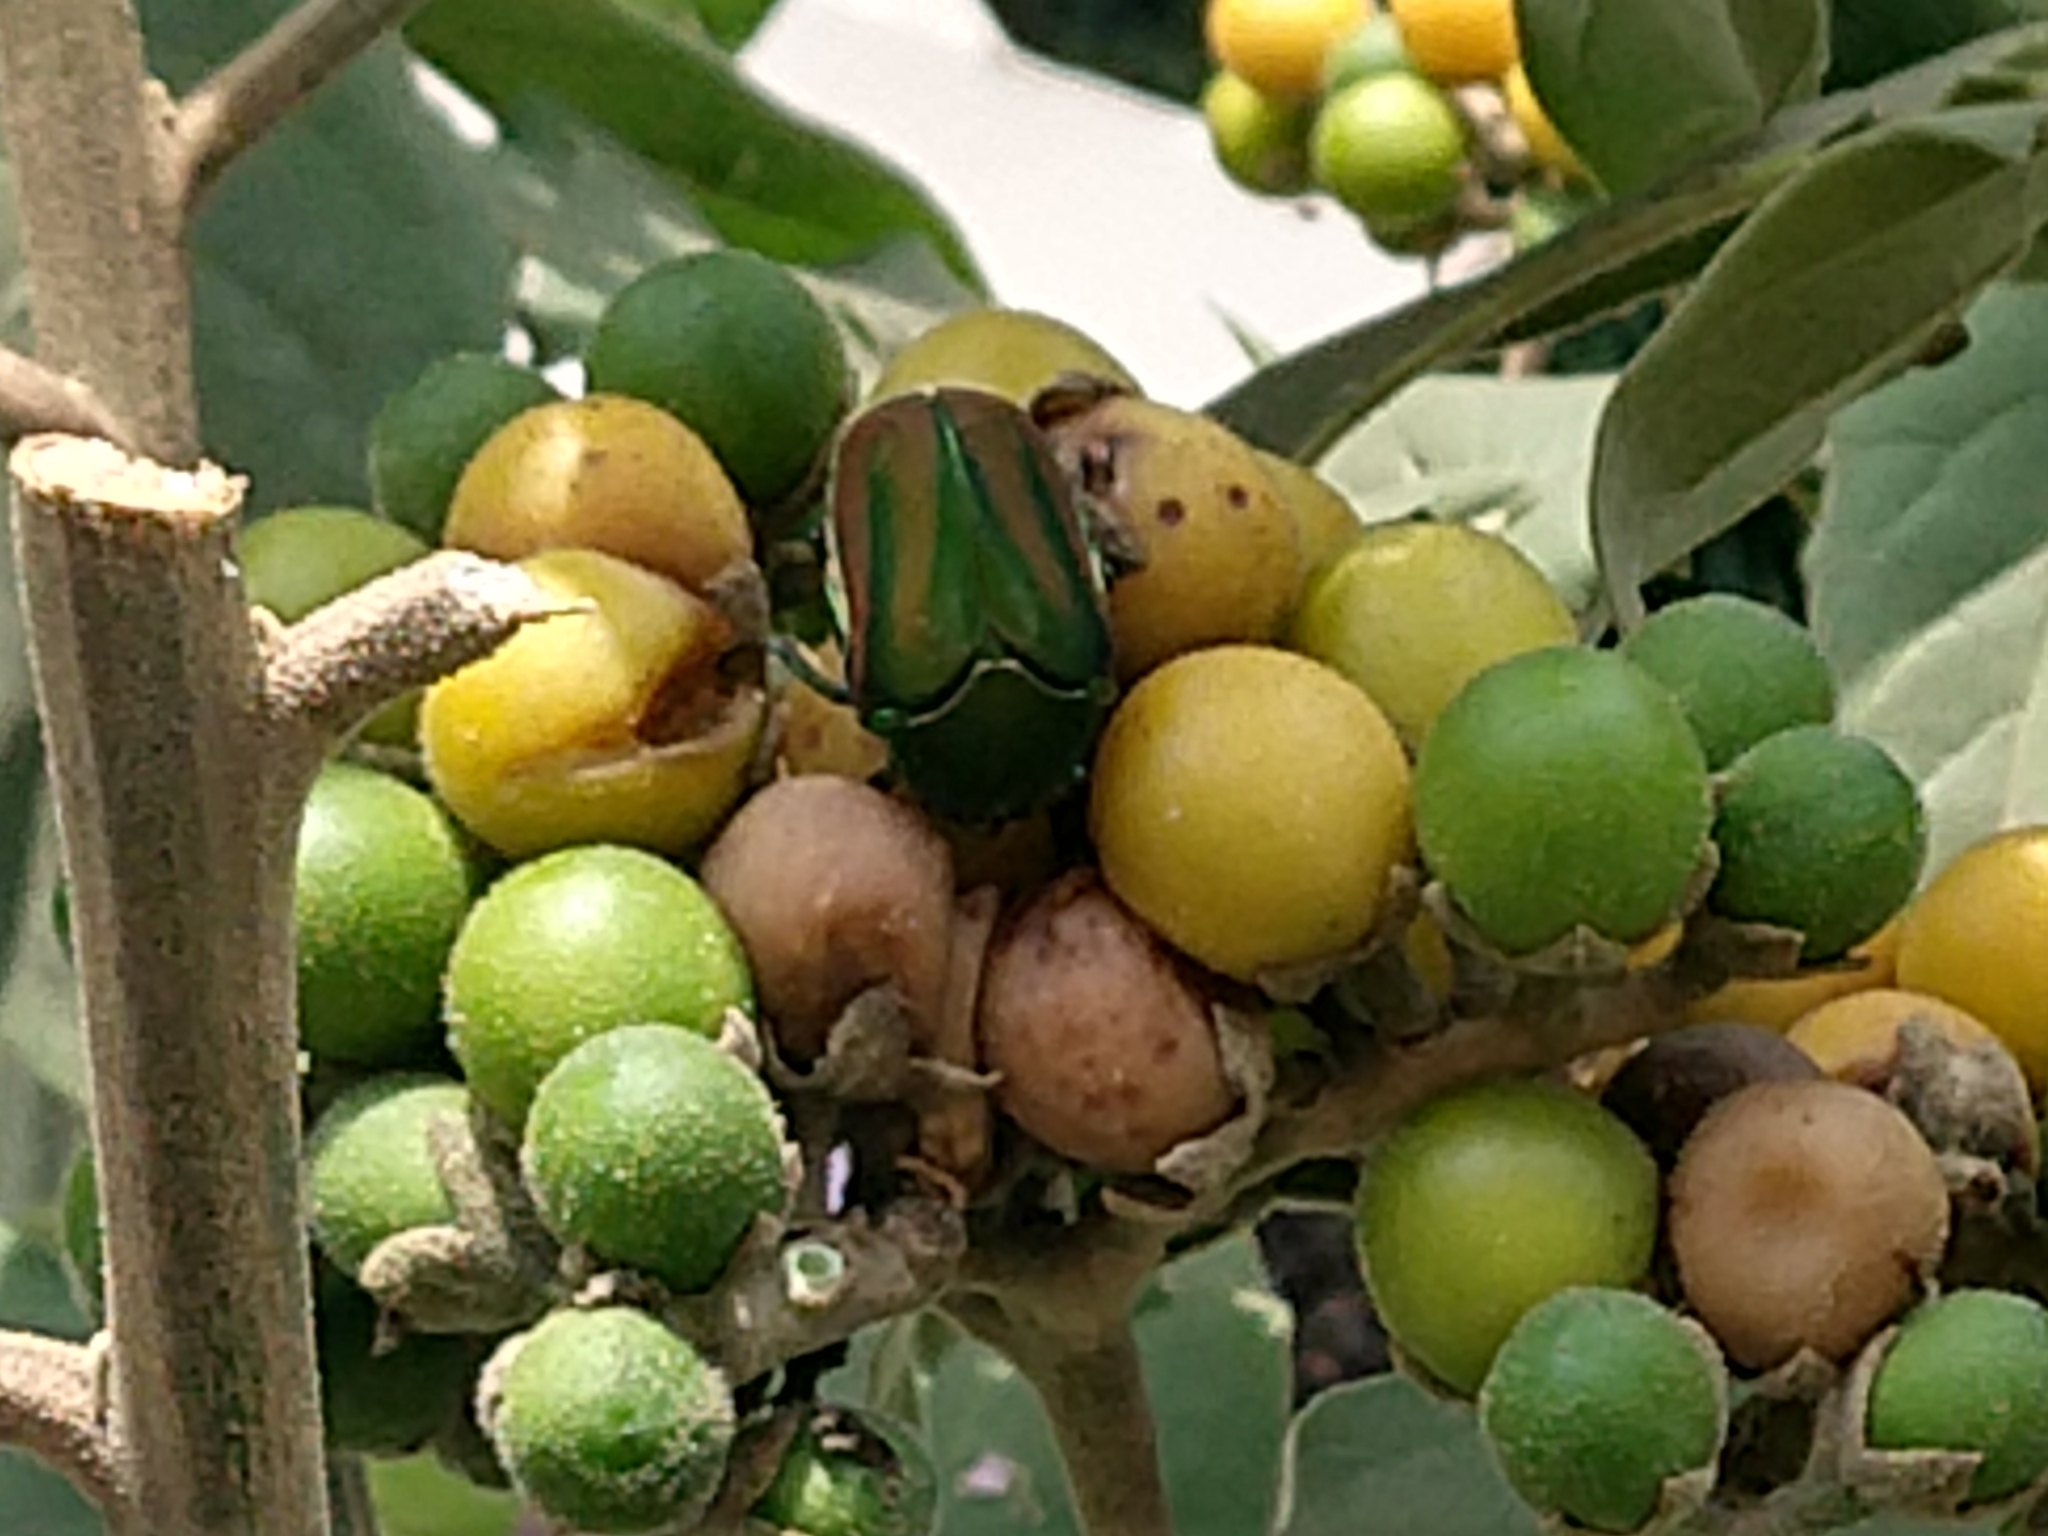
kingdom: Animalia
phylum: Arthropoda
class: Insecta
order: Coleoptera
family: Scarabaeidae
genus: Cotinis
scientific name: Cotinis mutabilis
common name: Figeater beetle
